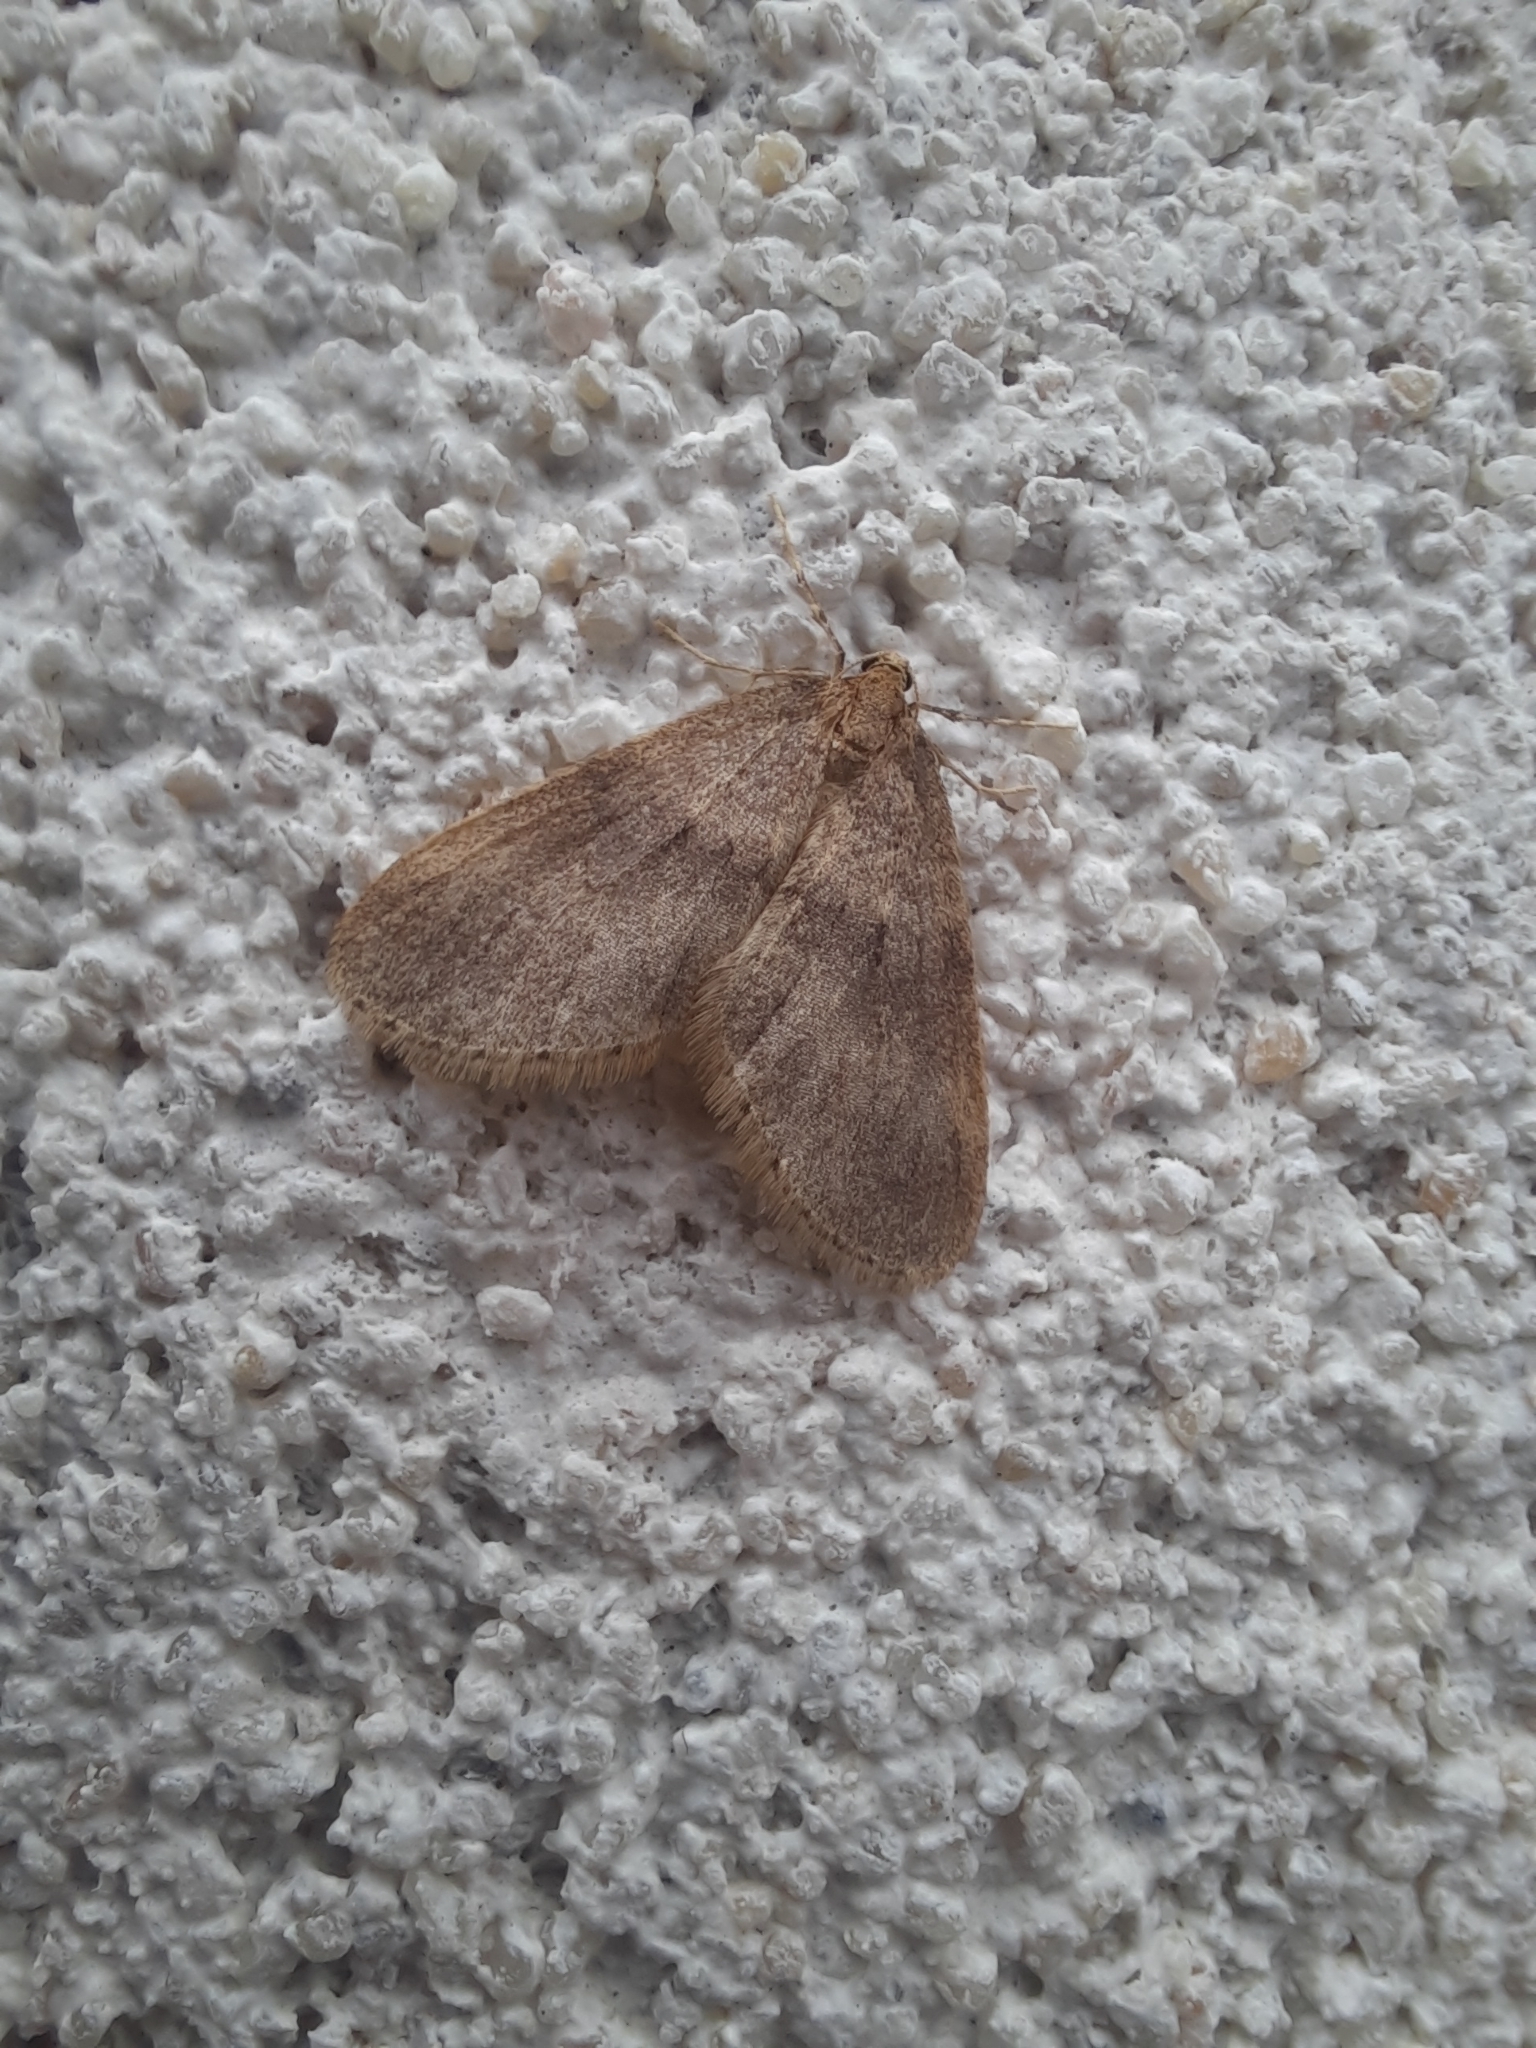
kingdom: Animalia
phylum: Arthropoda
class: Insecta
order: Lepidoptera
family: Geometridae
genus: Operophtera
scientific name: Operophtera brumata
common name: Winter moth
